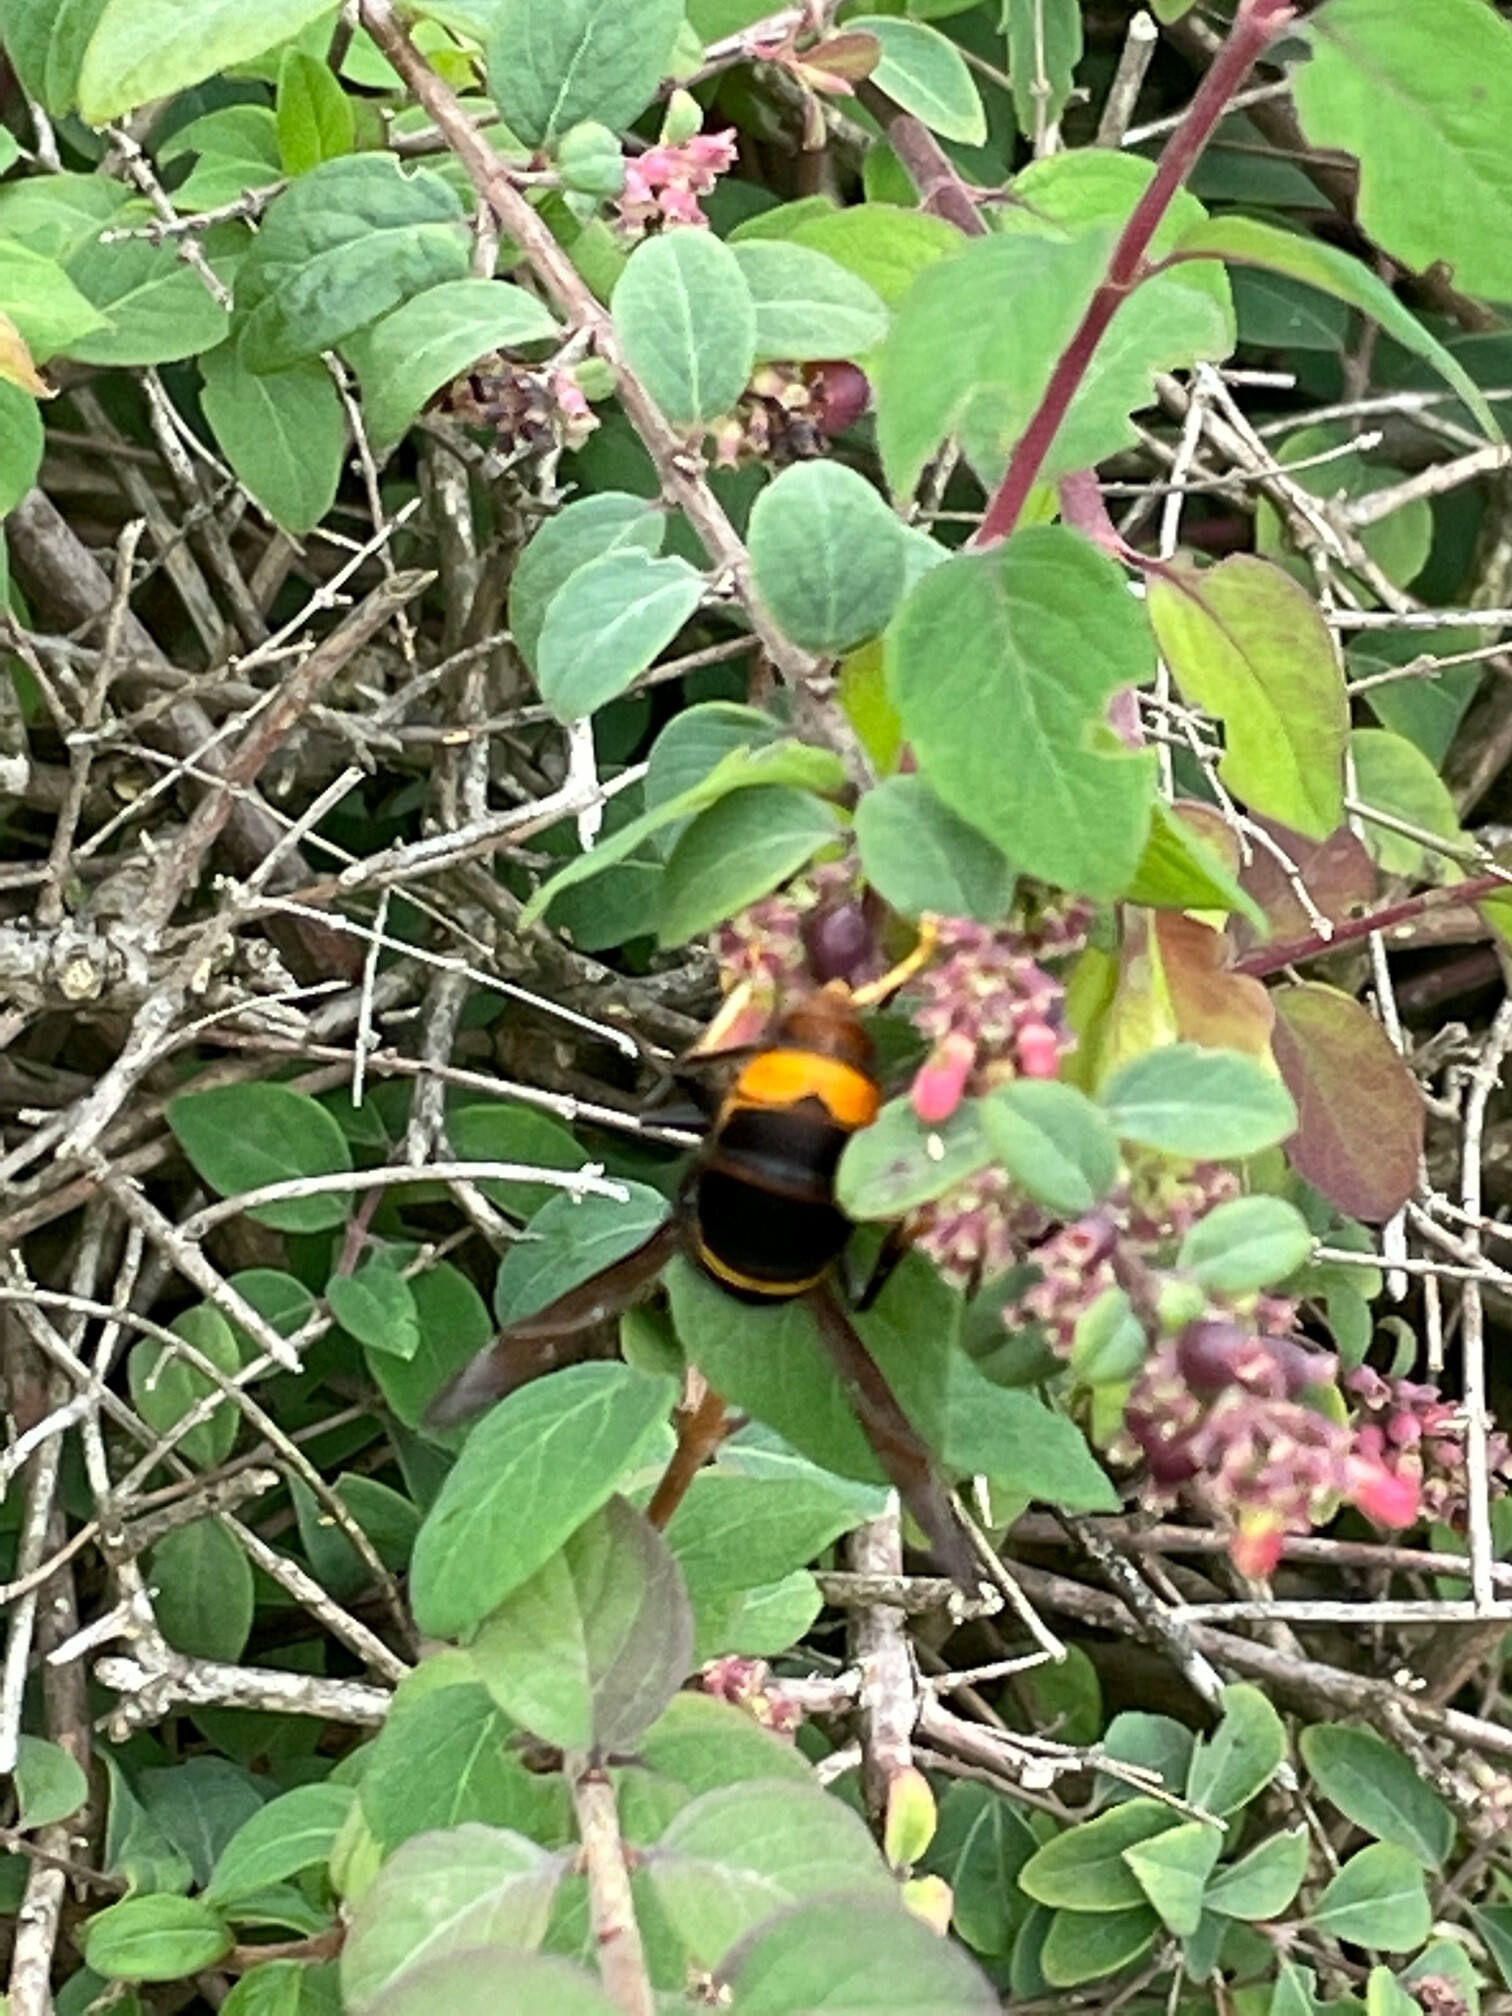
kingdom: Animalia
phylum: Arthropoda
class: Insecta
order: Hymenoptera
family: Vespidae
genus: Vespa
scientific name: Vespa velutina
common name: Asian hornet
